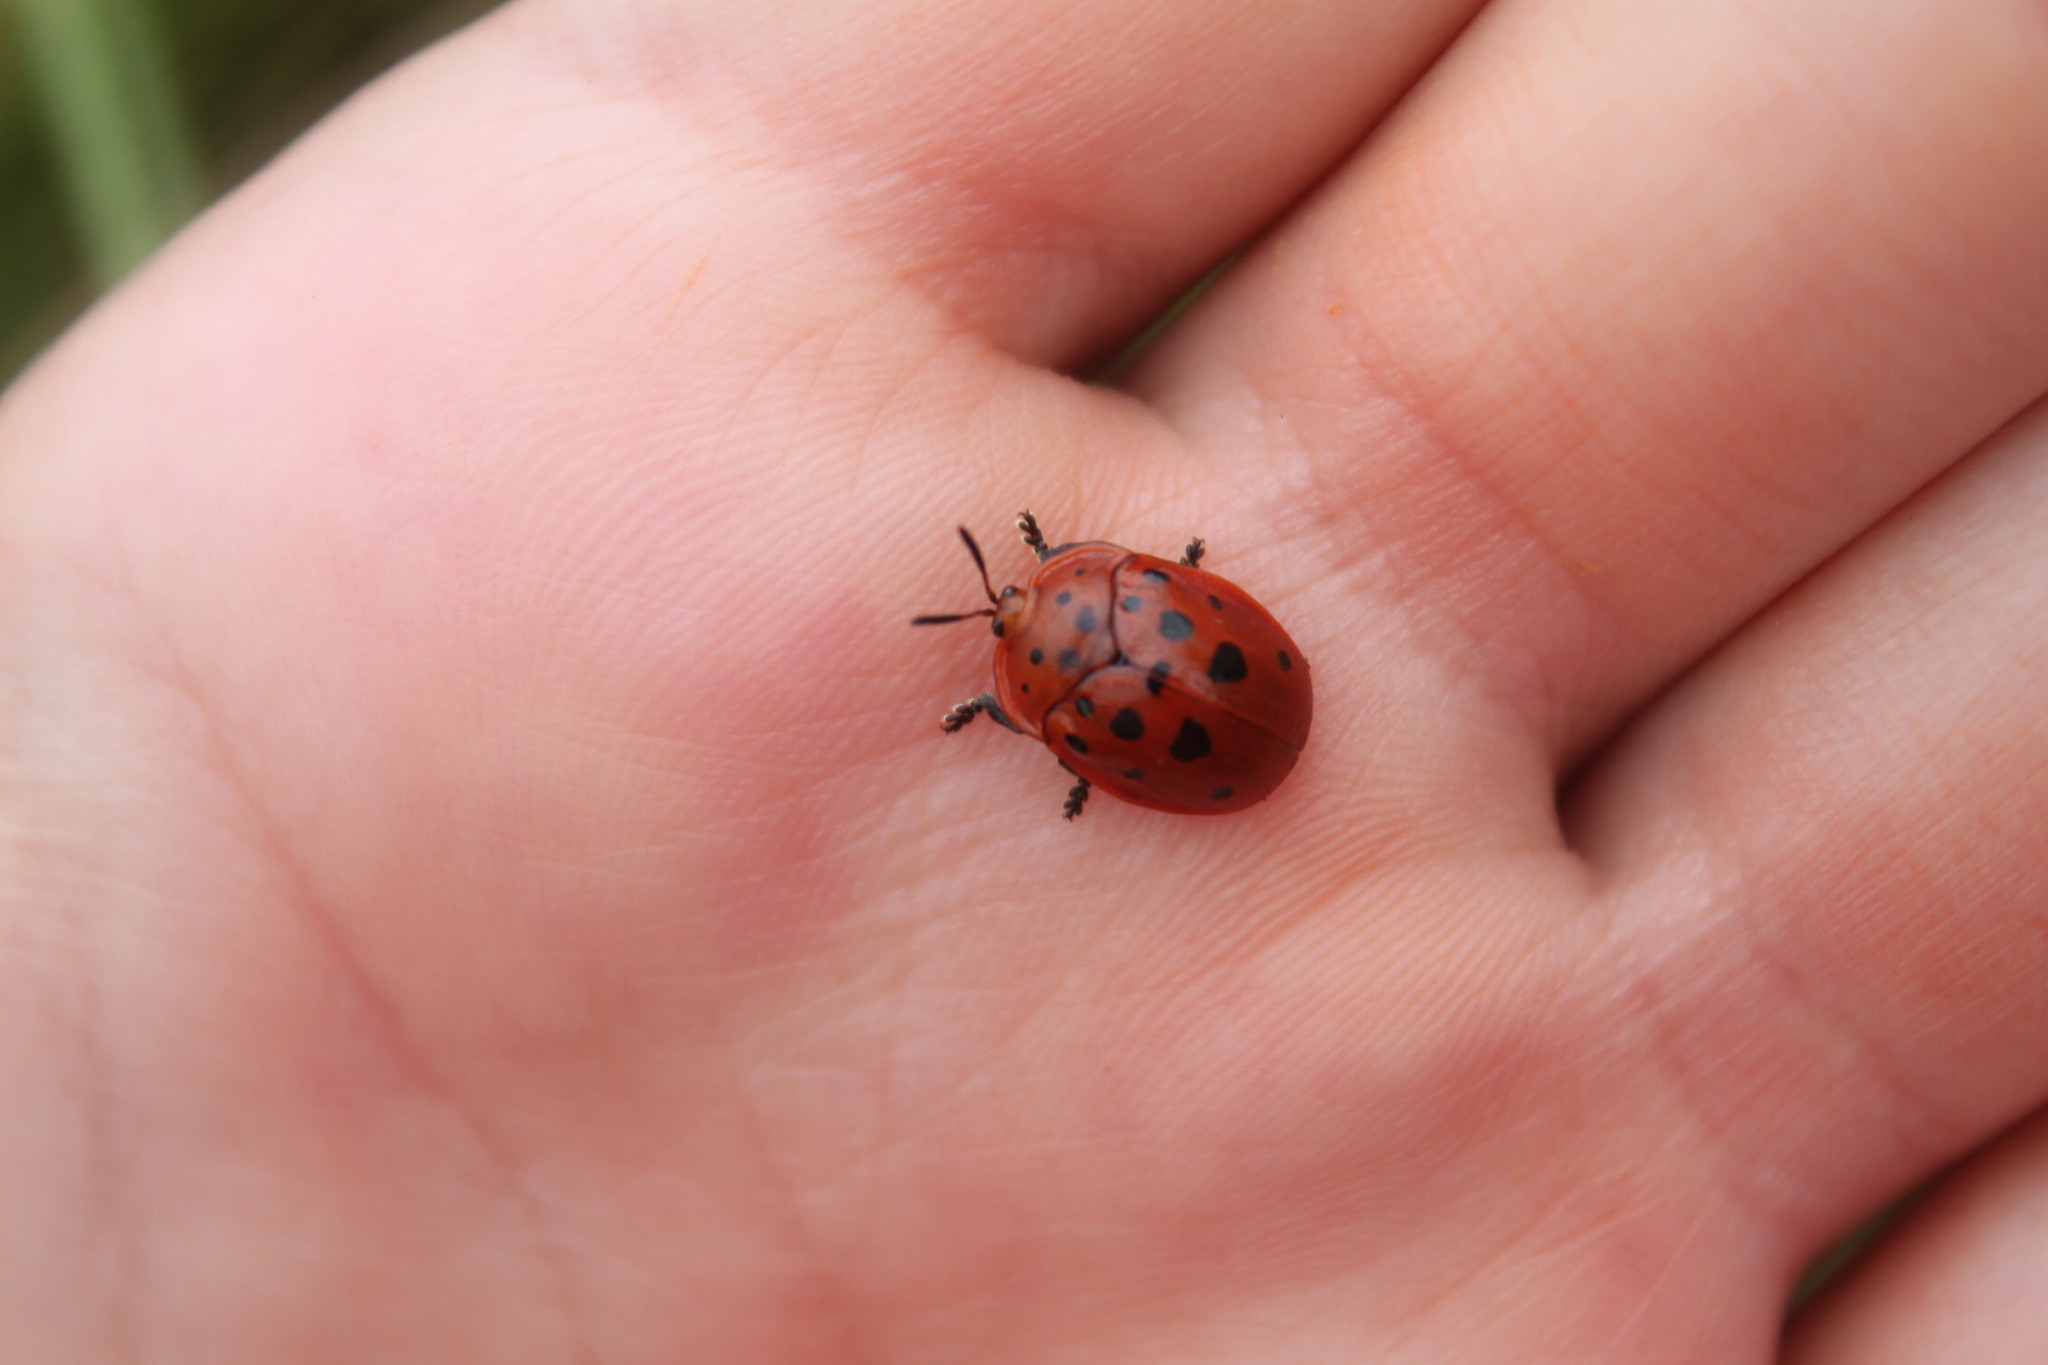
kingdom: Animalia
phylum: Arthropoda
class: Insecta
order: Coleoptera
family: Chrysomelidae
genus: Chelymorpha
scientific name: Chelymorpha cassidea
